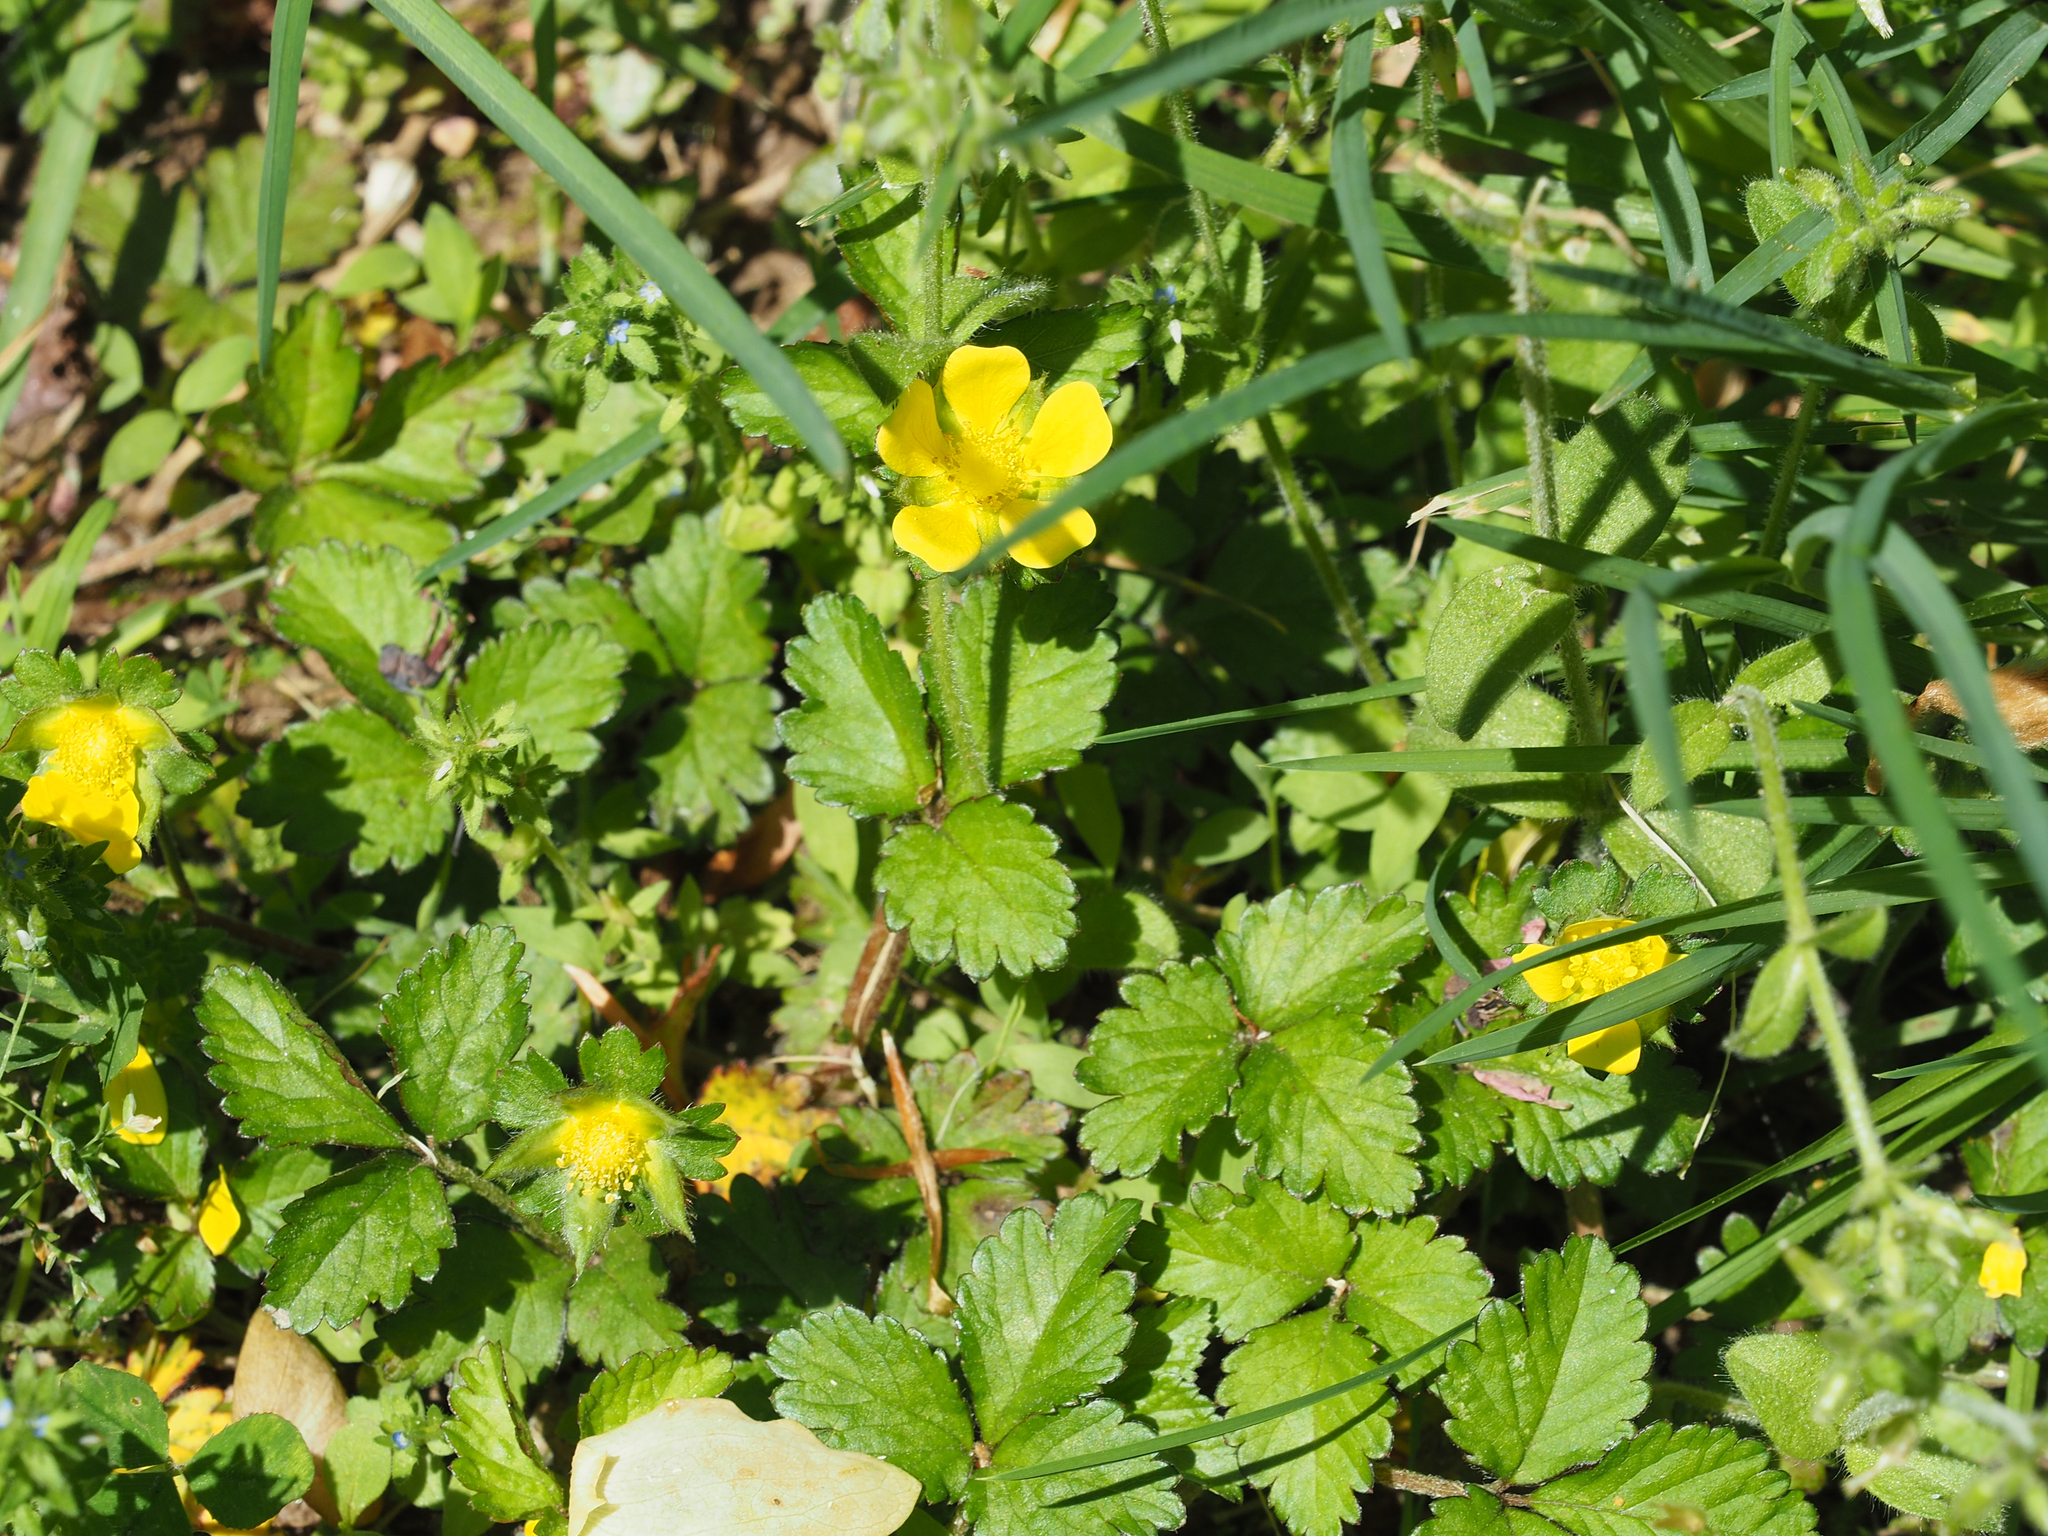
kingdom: Plantae
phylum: Tracheophyta
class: Magnoliopsida
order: Rosales
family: Rosaceae
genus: Potentilla
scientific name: Potentilla indica
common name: Yellow-flowered strawberry
